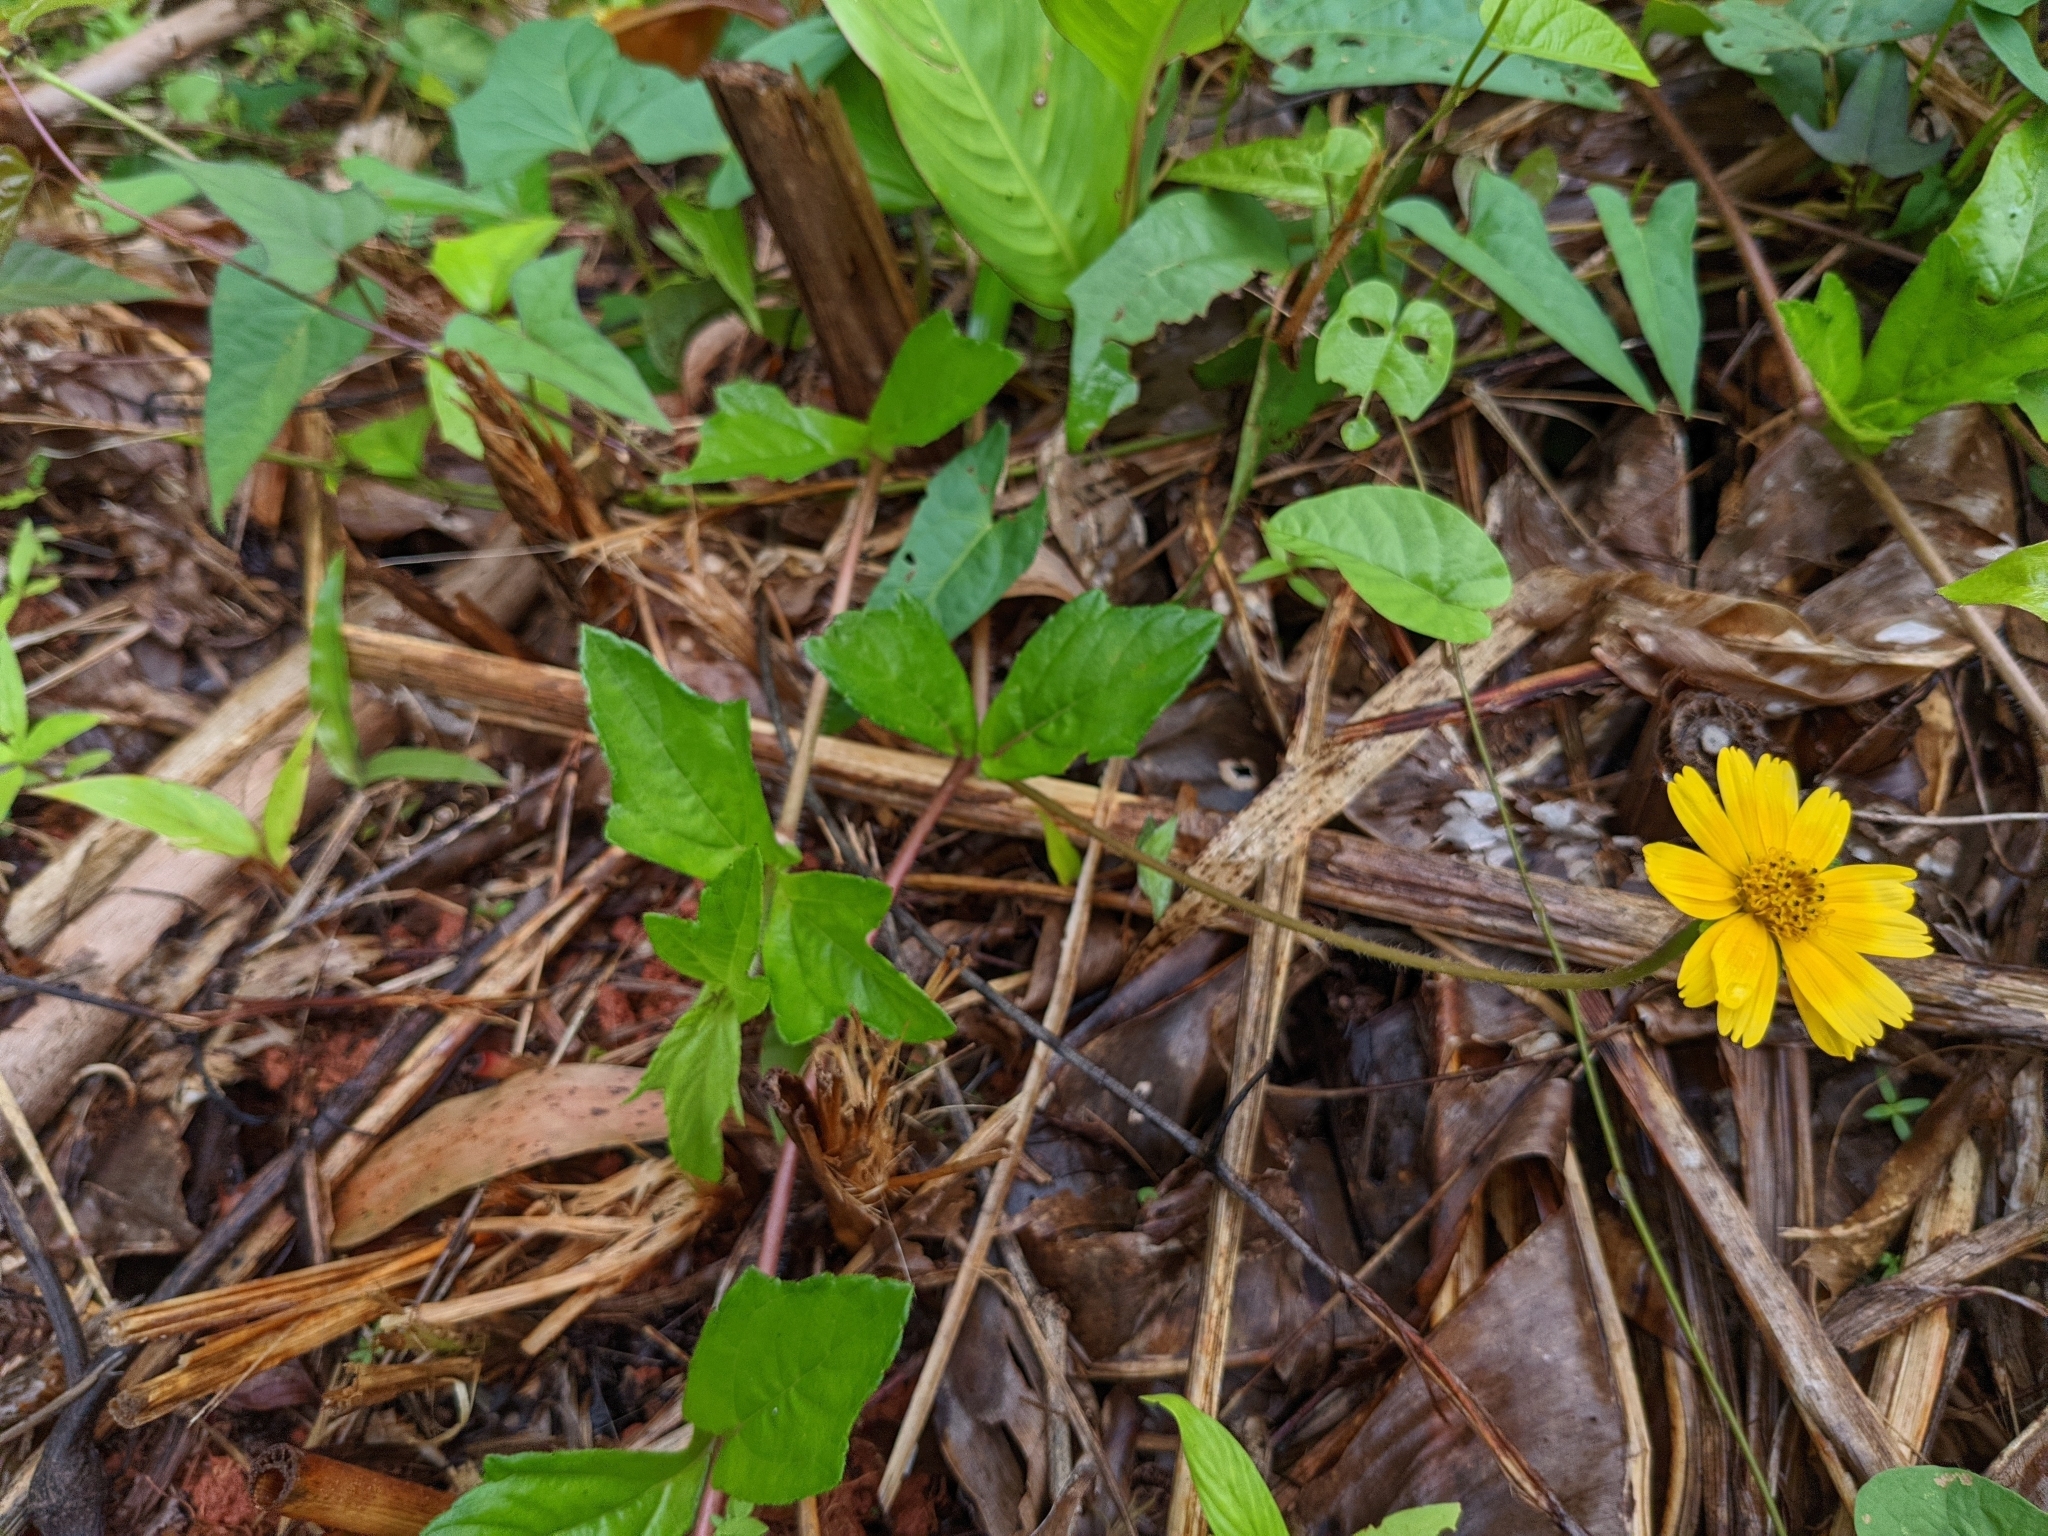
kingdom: Plantae
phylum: Tracheophyta
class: Magnoliopsida
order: Asterales
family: Asteraceae
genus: Sphagneticola
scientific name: Sphagneticola trilobata
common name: Bay biscayne creeping-oxeye
